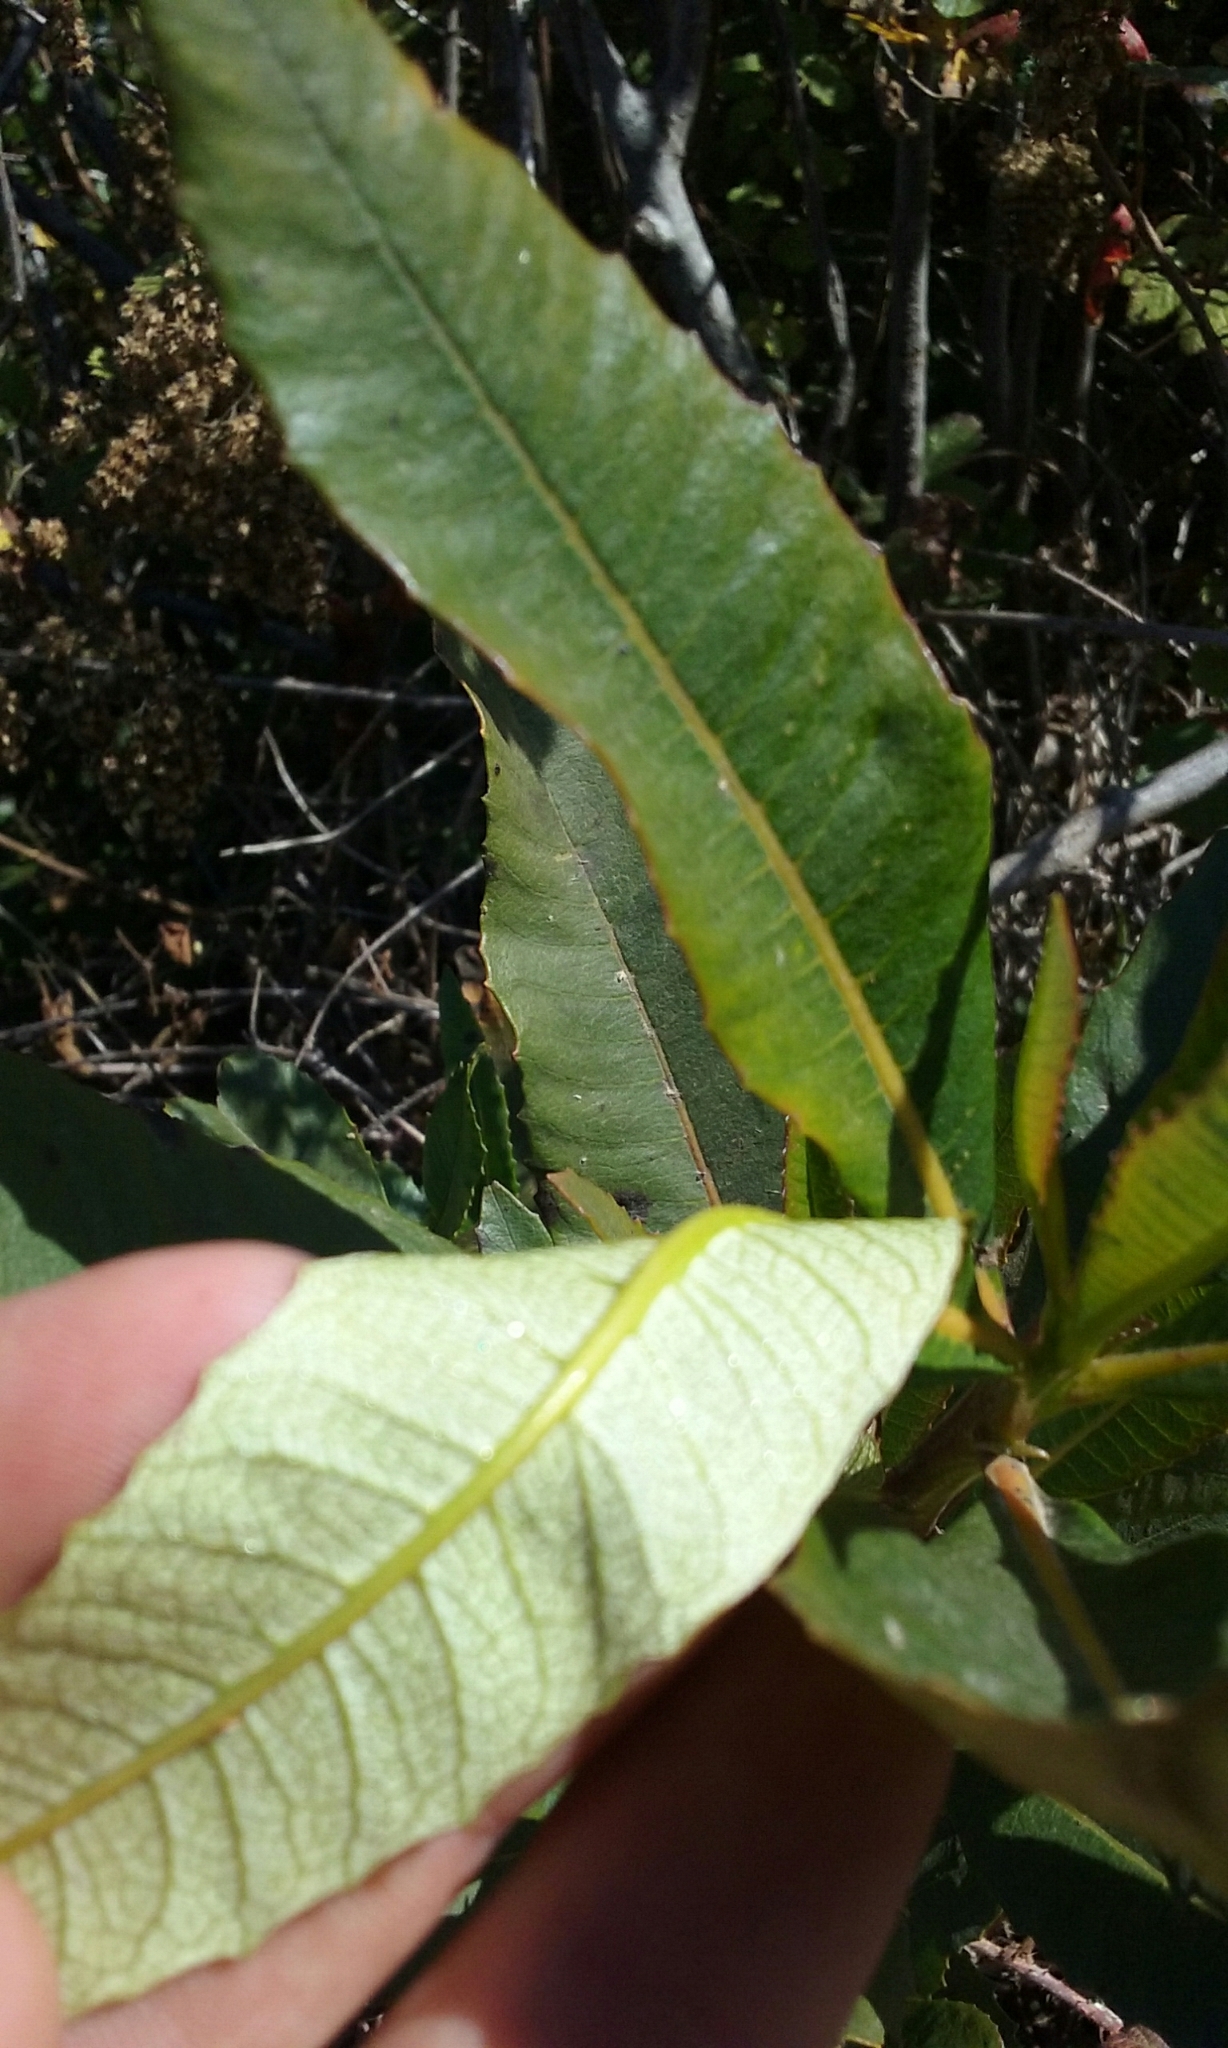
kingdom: Plantae
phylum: Tracheophyta
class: Magnoliopsida
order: Boraginales
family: Namaceae
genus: Eriodictyon
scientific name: Eriodictyon californicum
